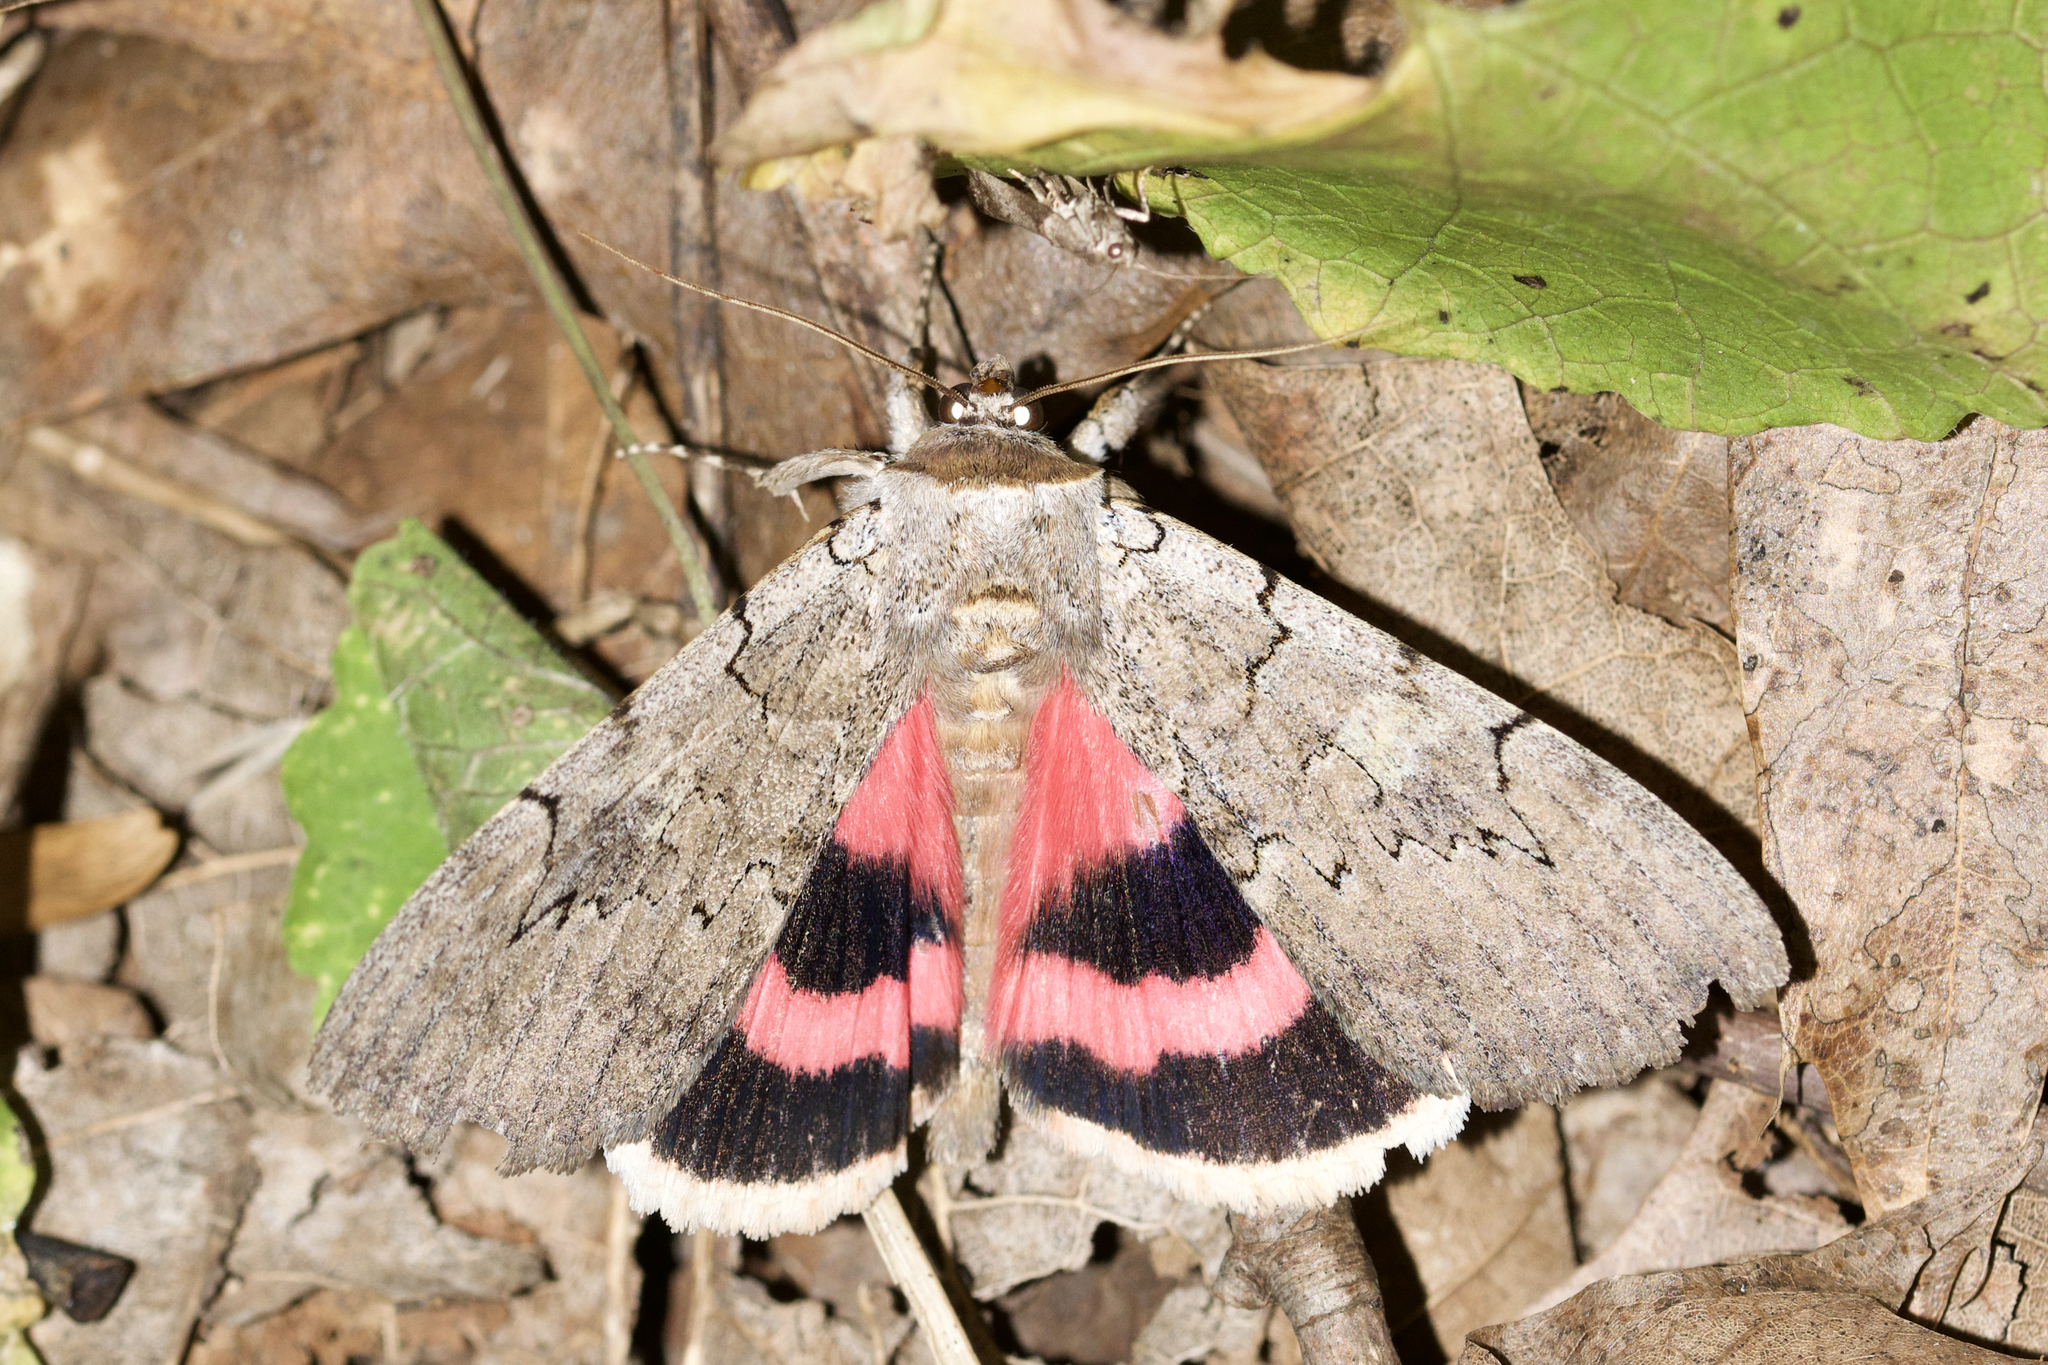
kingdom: Animalia
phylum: Arthropoda
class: Insecta
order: Lepidoptera
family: Erebidae
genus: Catocala
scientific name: Catocala concumbens
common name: Pink underwing
